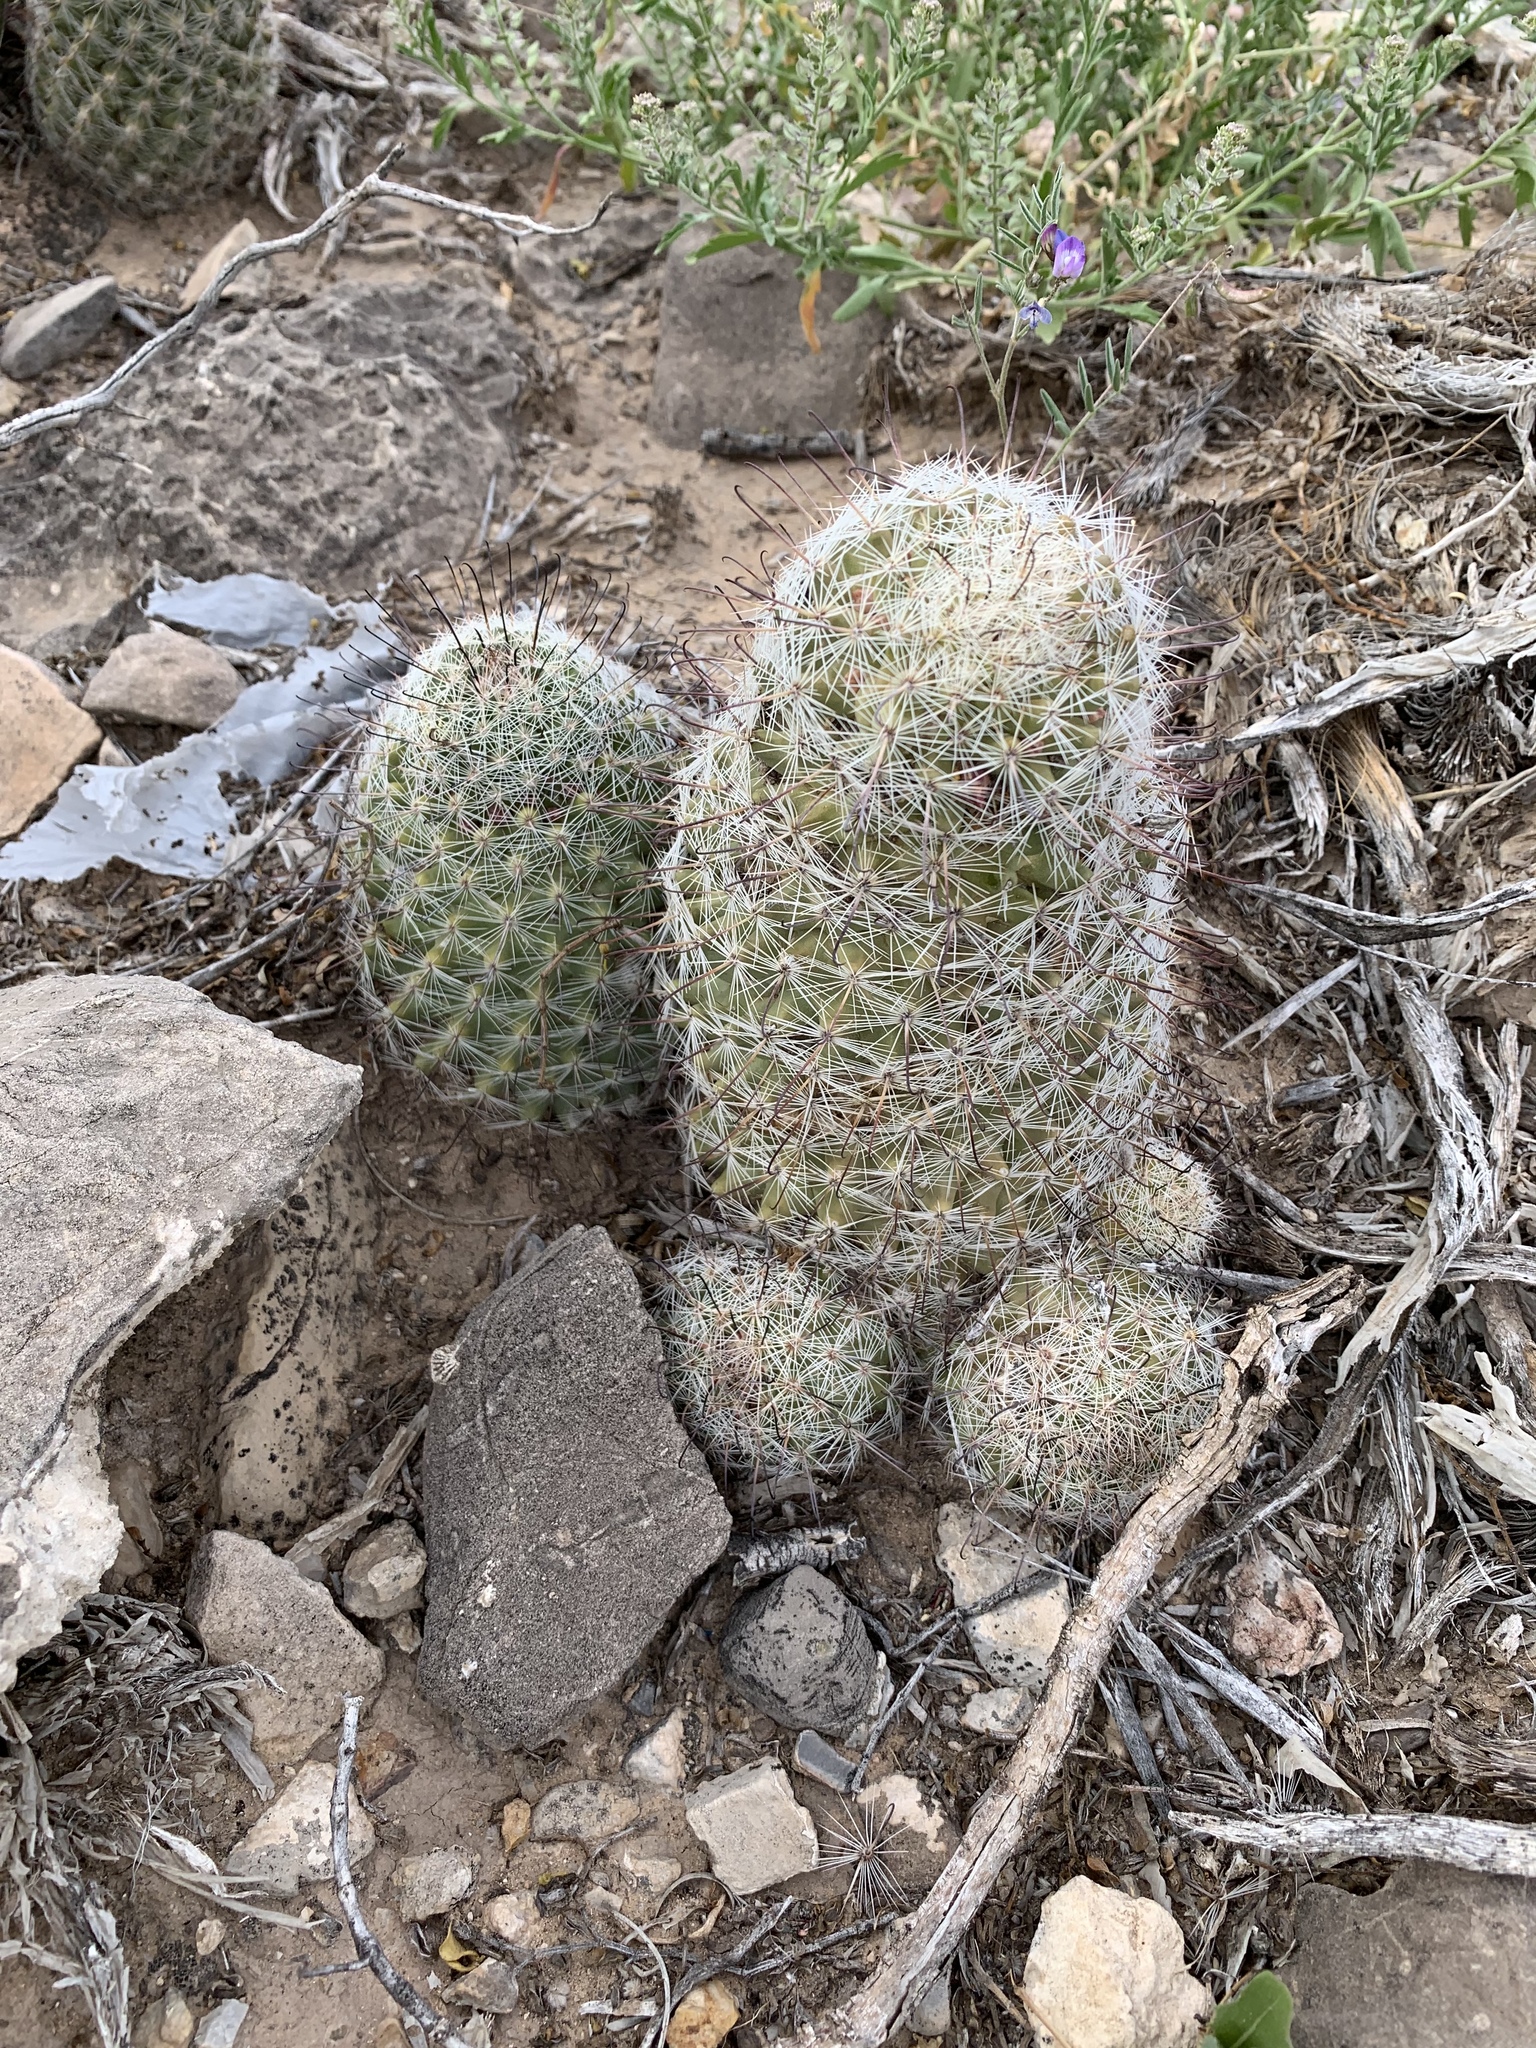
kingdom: Plantae
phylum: Tracheophyta
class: Magnoliopsida
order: Caryophyllales
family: Cactaceae
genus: Cochemiea
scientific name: Cochemiea grahamii
